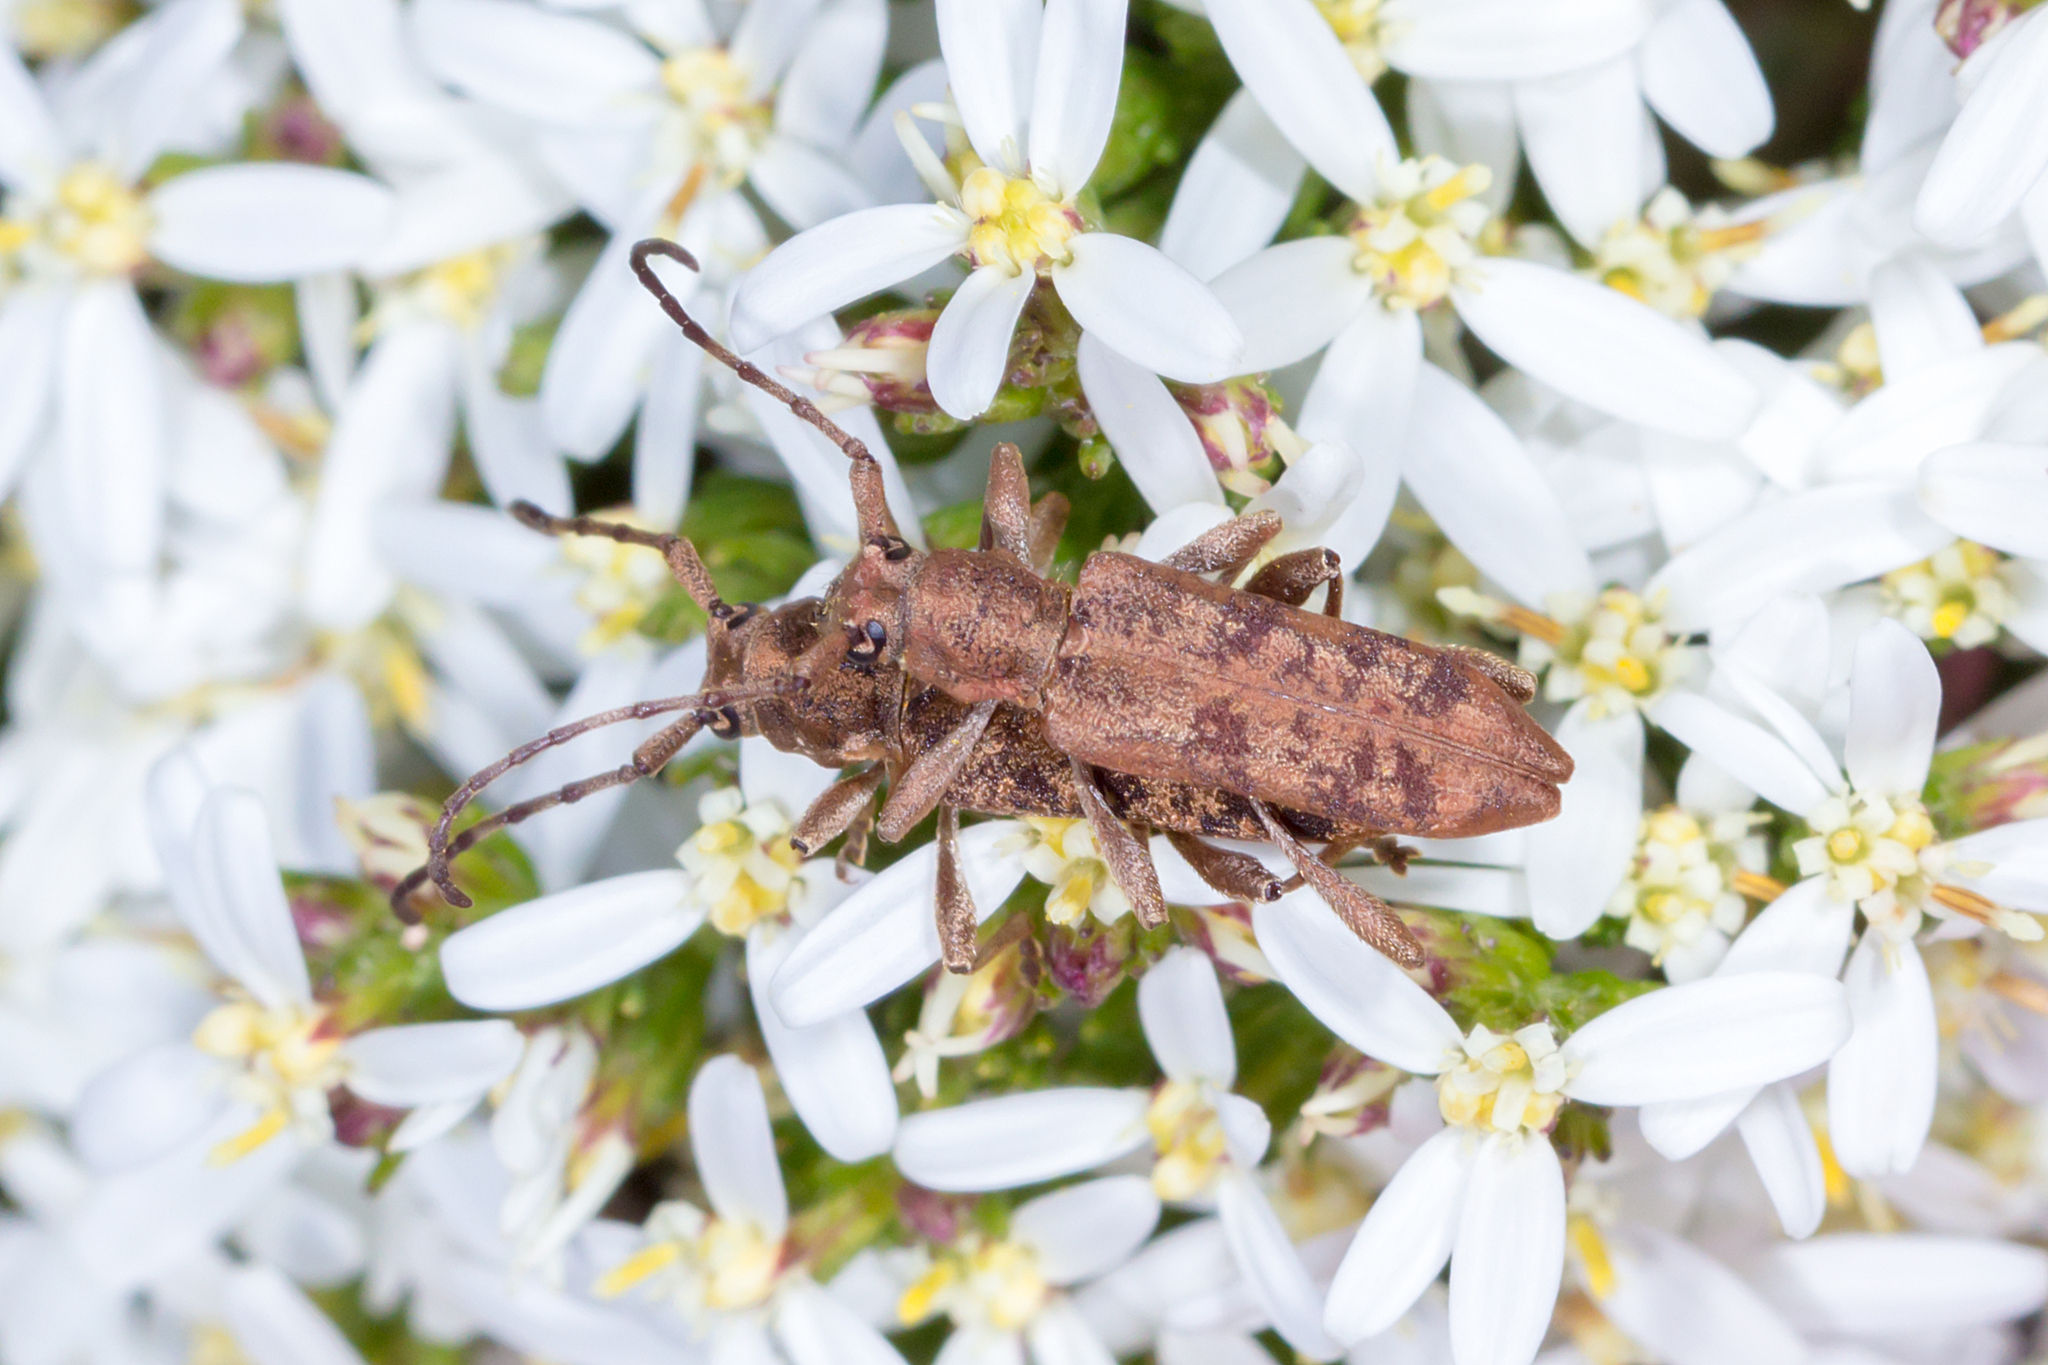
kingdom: Animalia
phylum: Arthropoda
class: Insecta
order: Coleoptera
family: Cerambycidae
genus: Pempsamacra
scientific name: Pempsamacra dispersa
